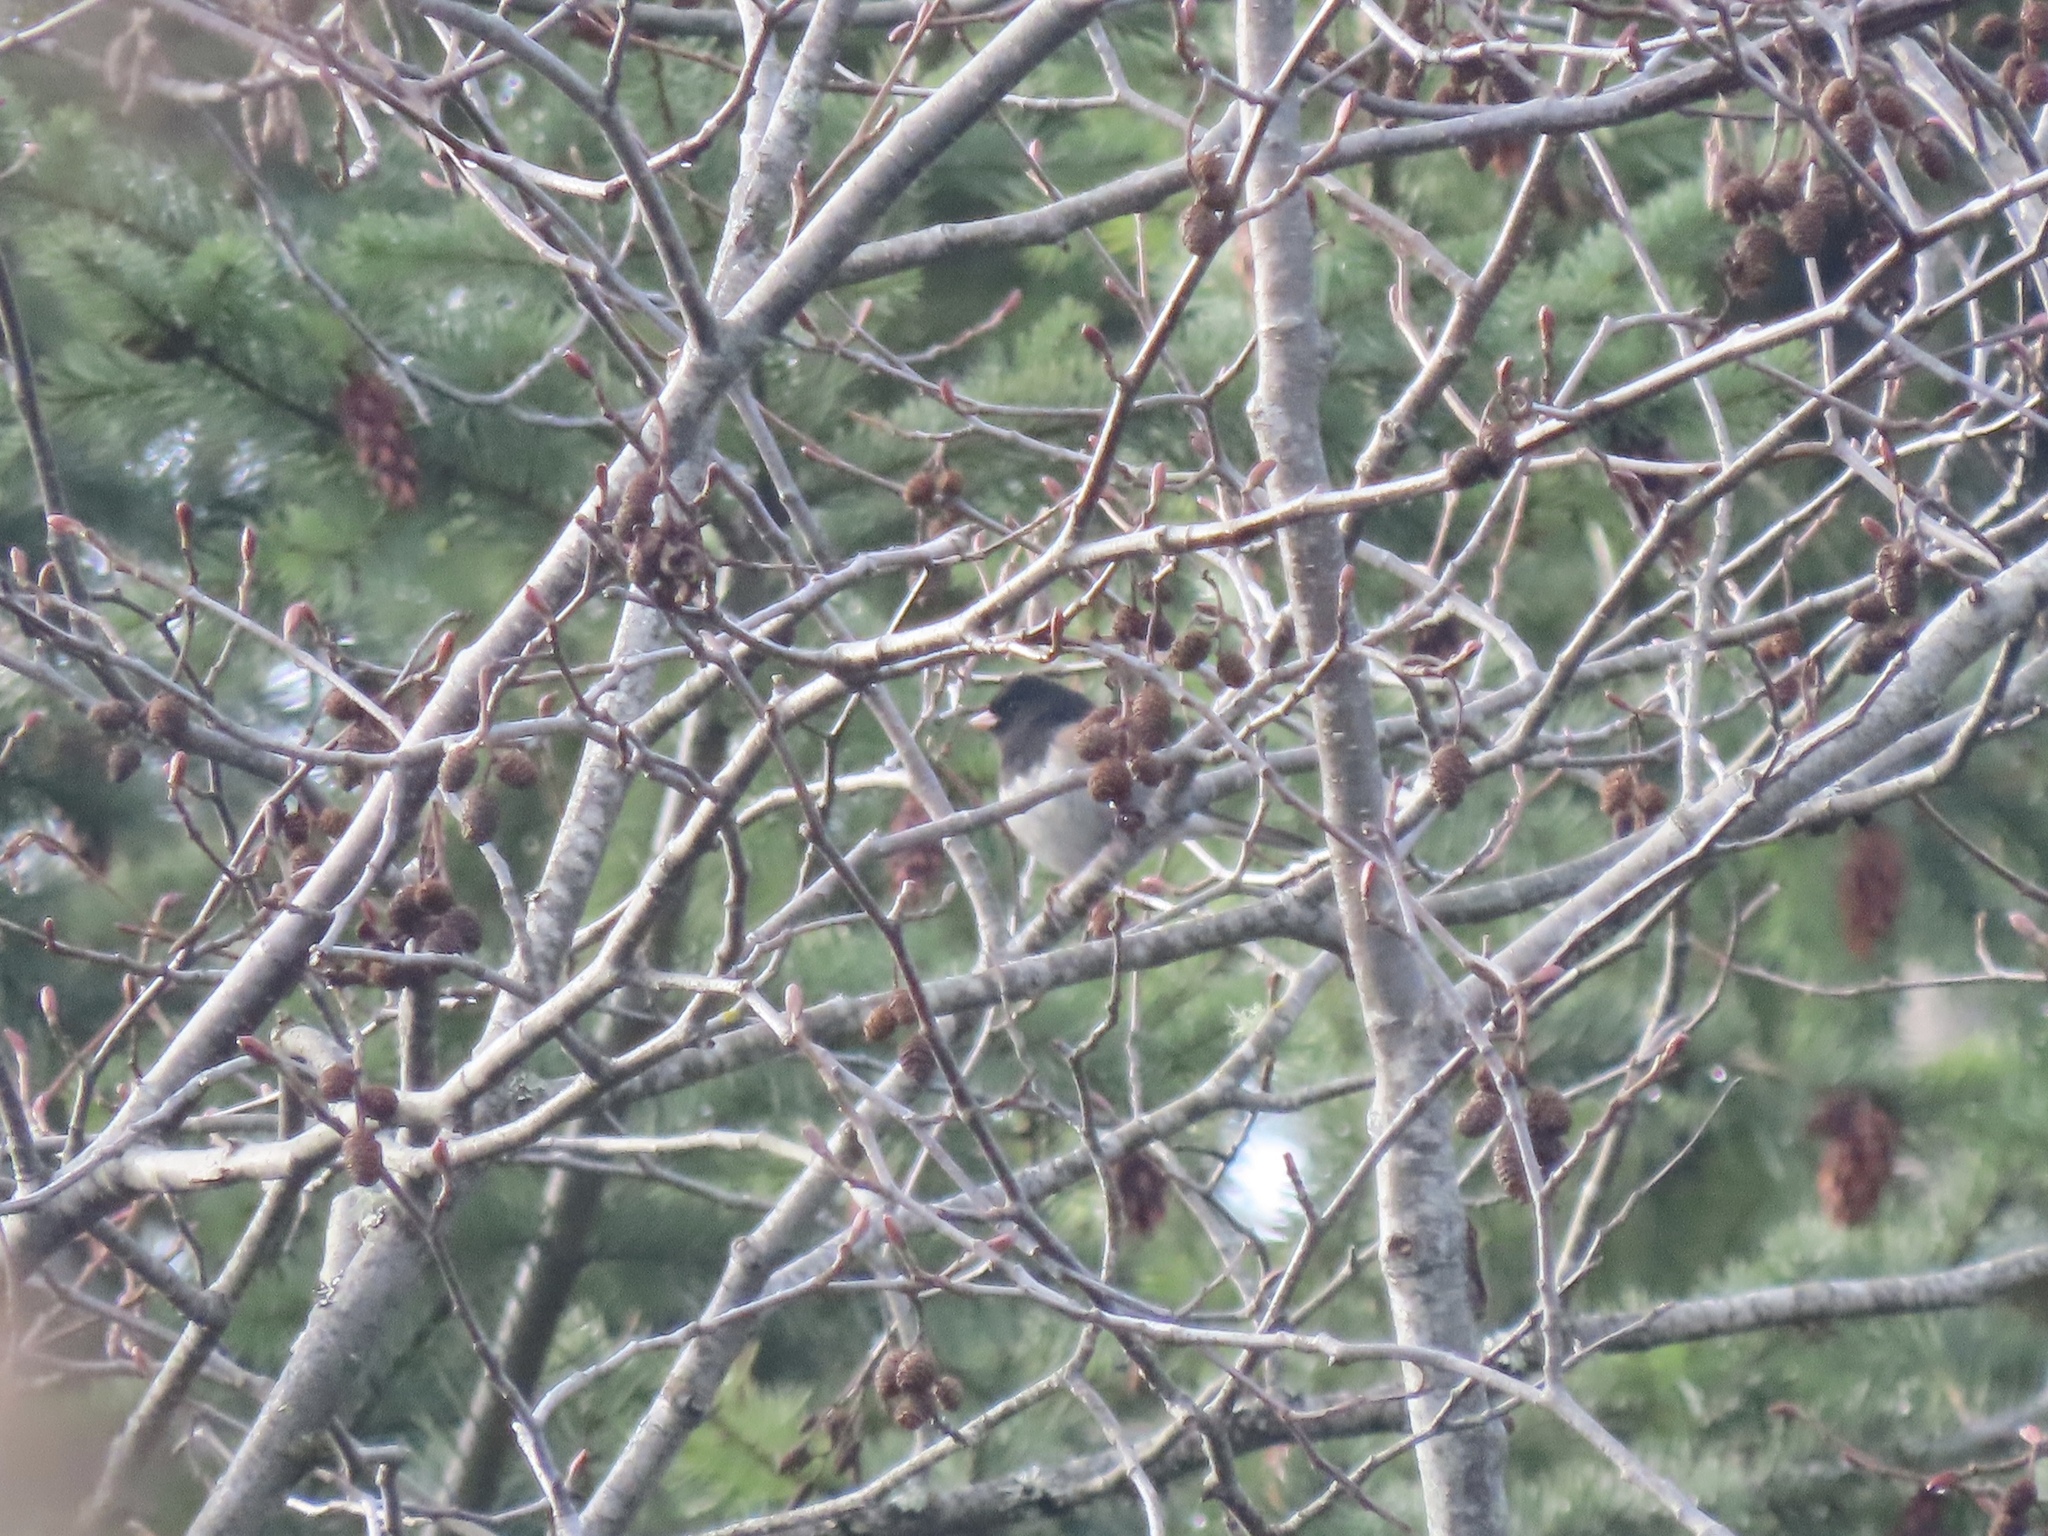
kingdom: Animalia
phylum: Chordata
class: Aves
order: Passeriformes
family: Passerellidae
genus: Junco
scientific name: Junco hyemalis
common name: Dark-eyed junco
